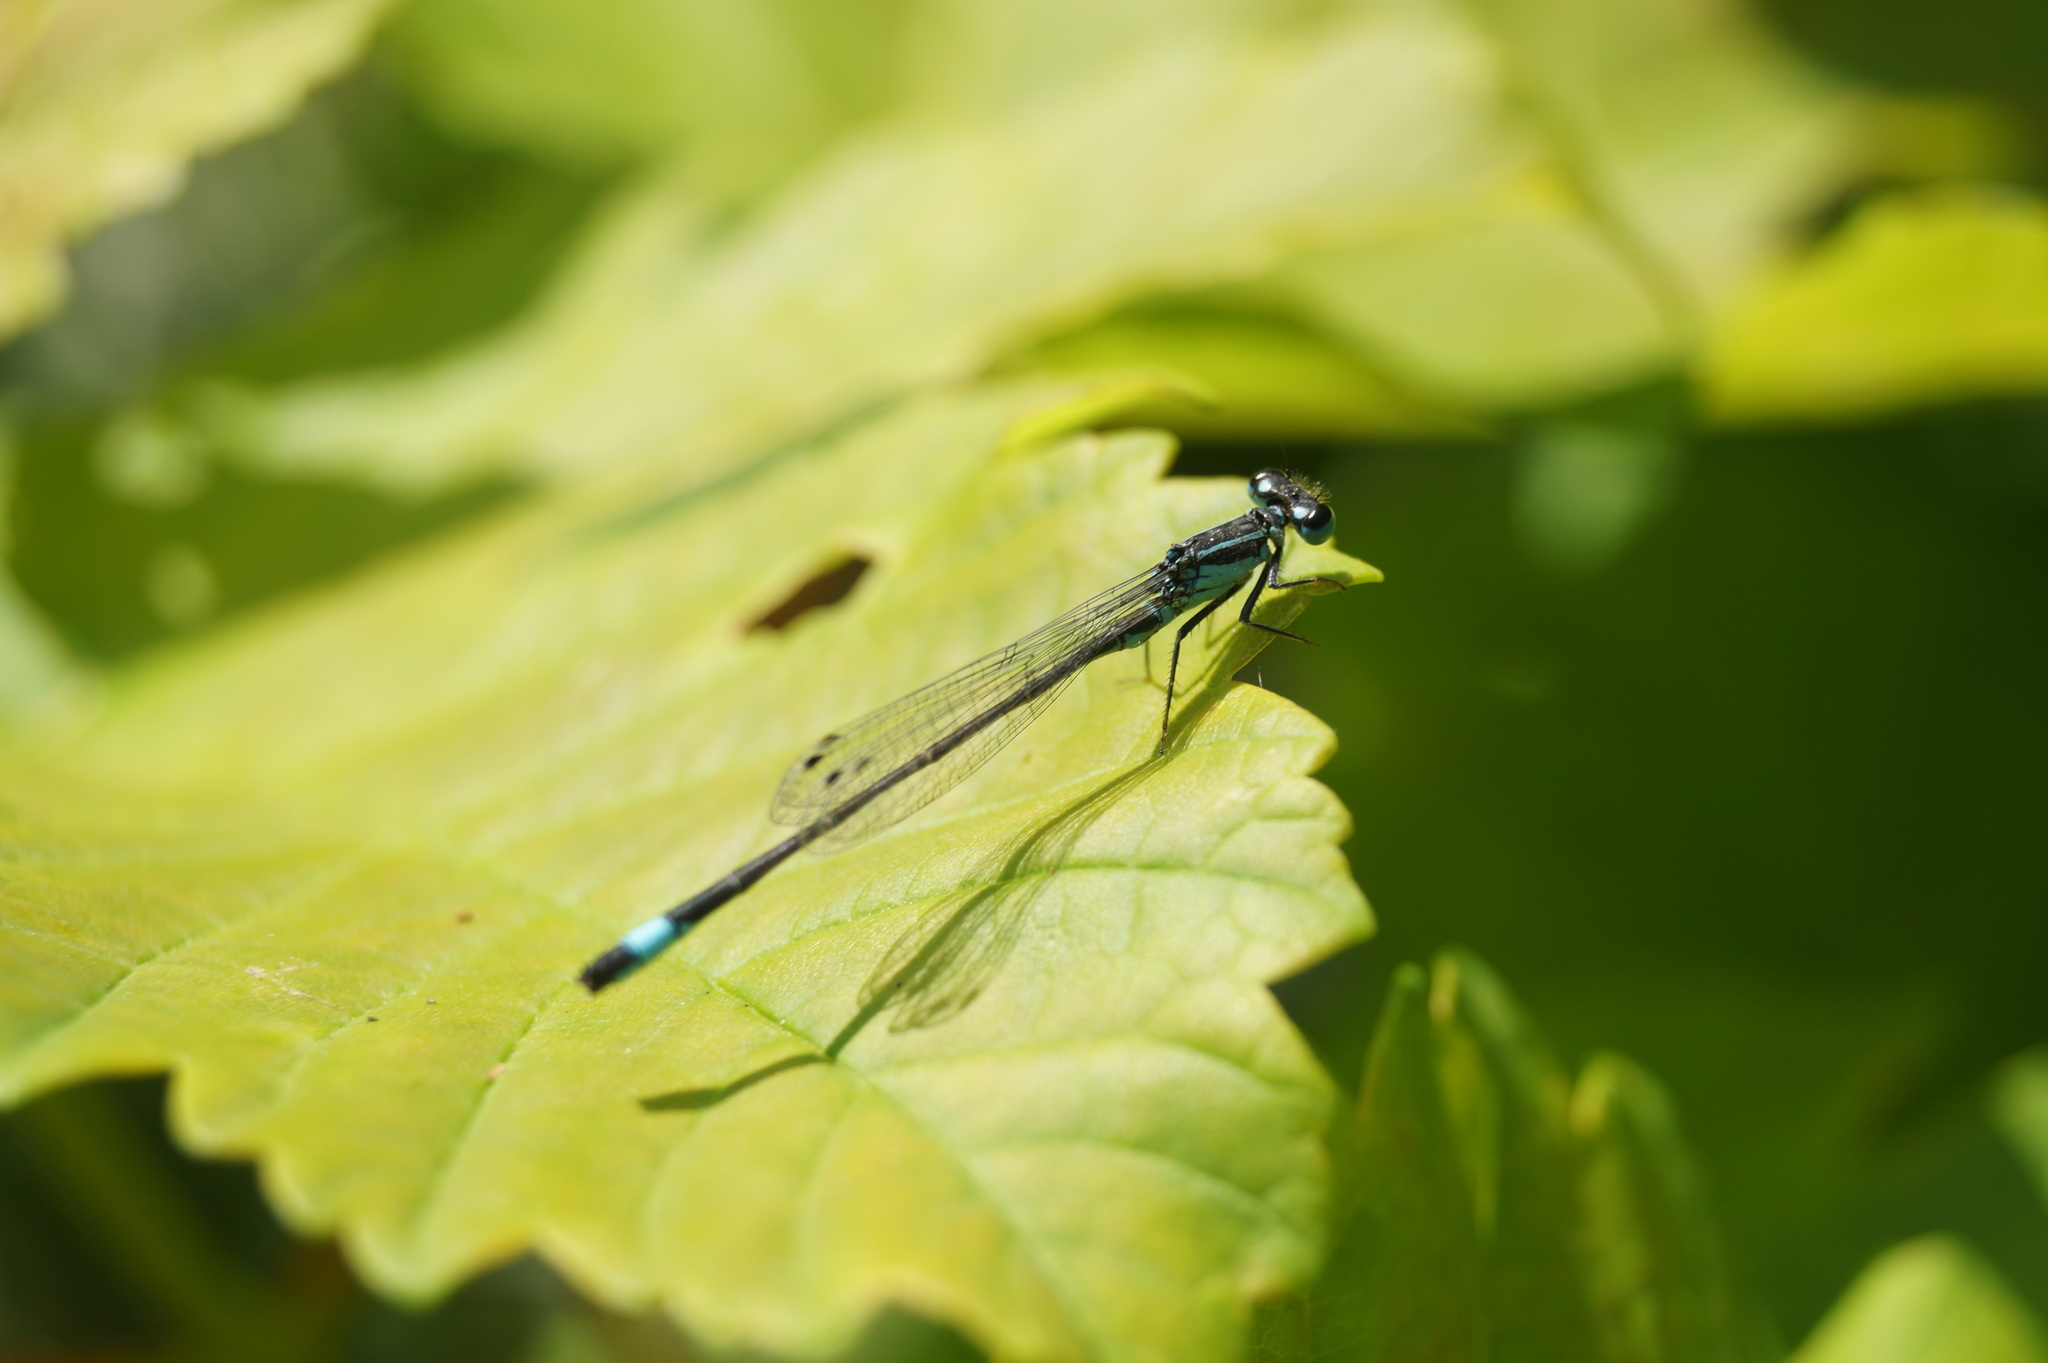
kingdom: Animalia
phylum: Arthropoda
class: Insecta
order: Odonata
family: Coenagrionidae
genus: Ischnura
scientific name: Ischnura elegans
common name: Blue-tailed damselfly
